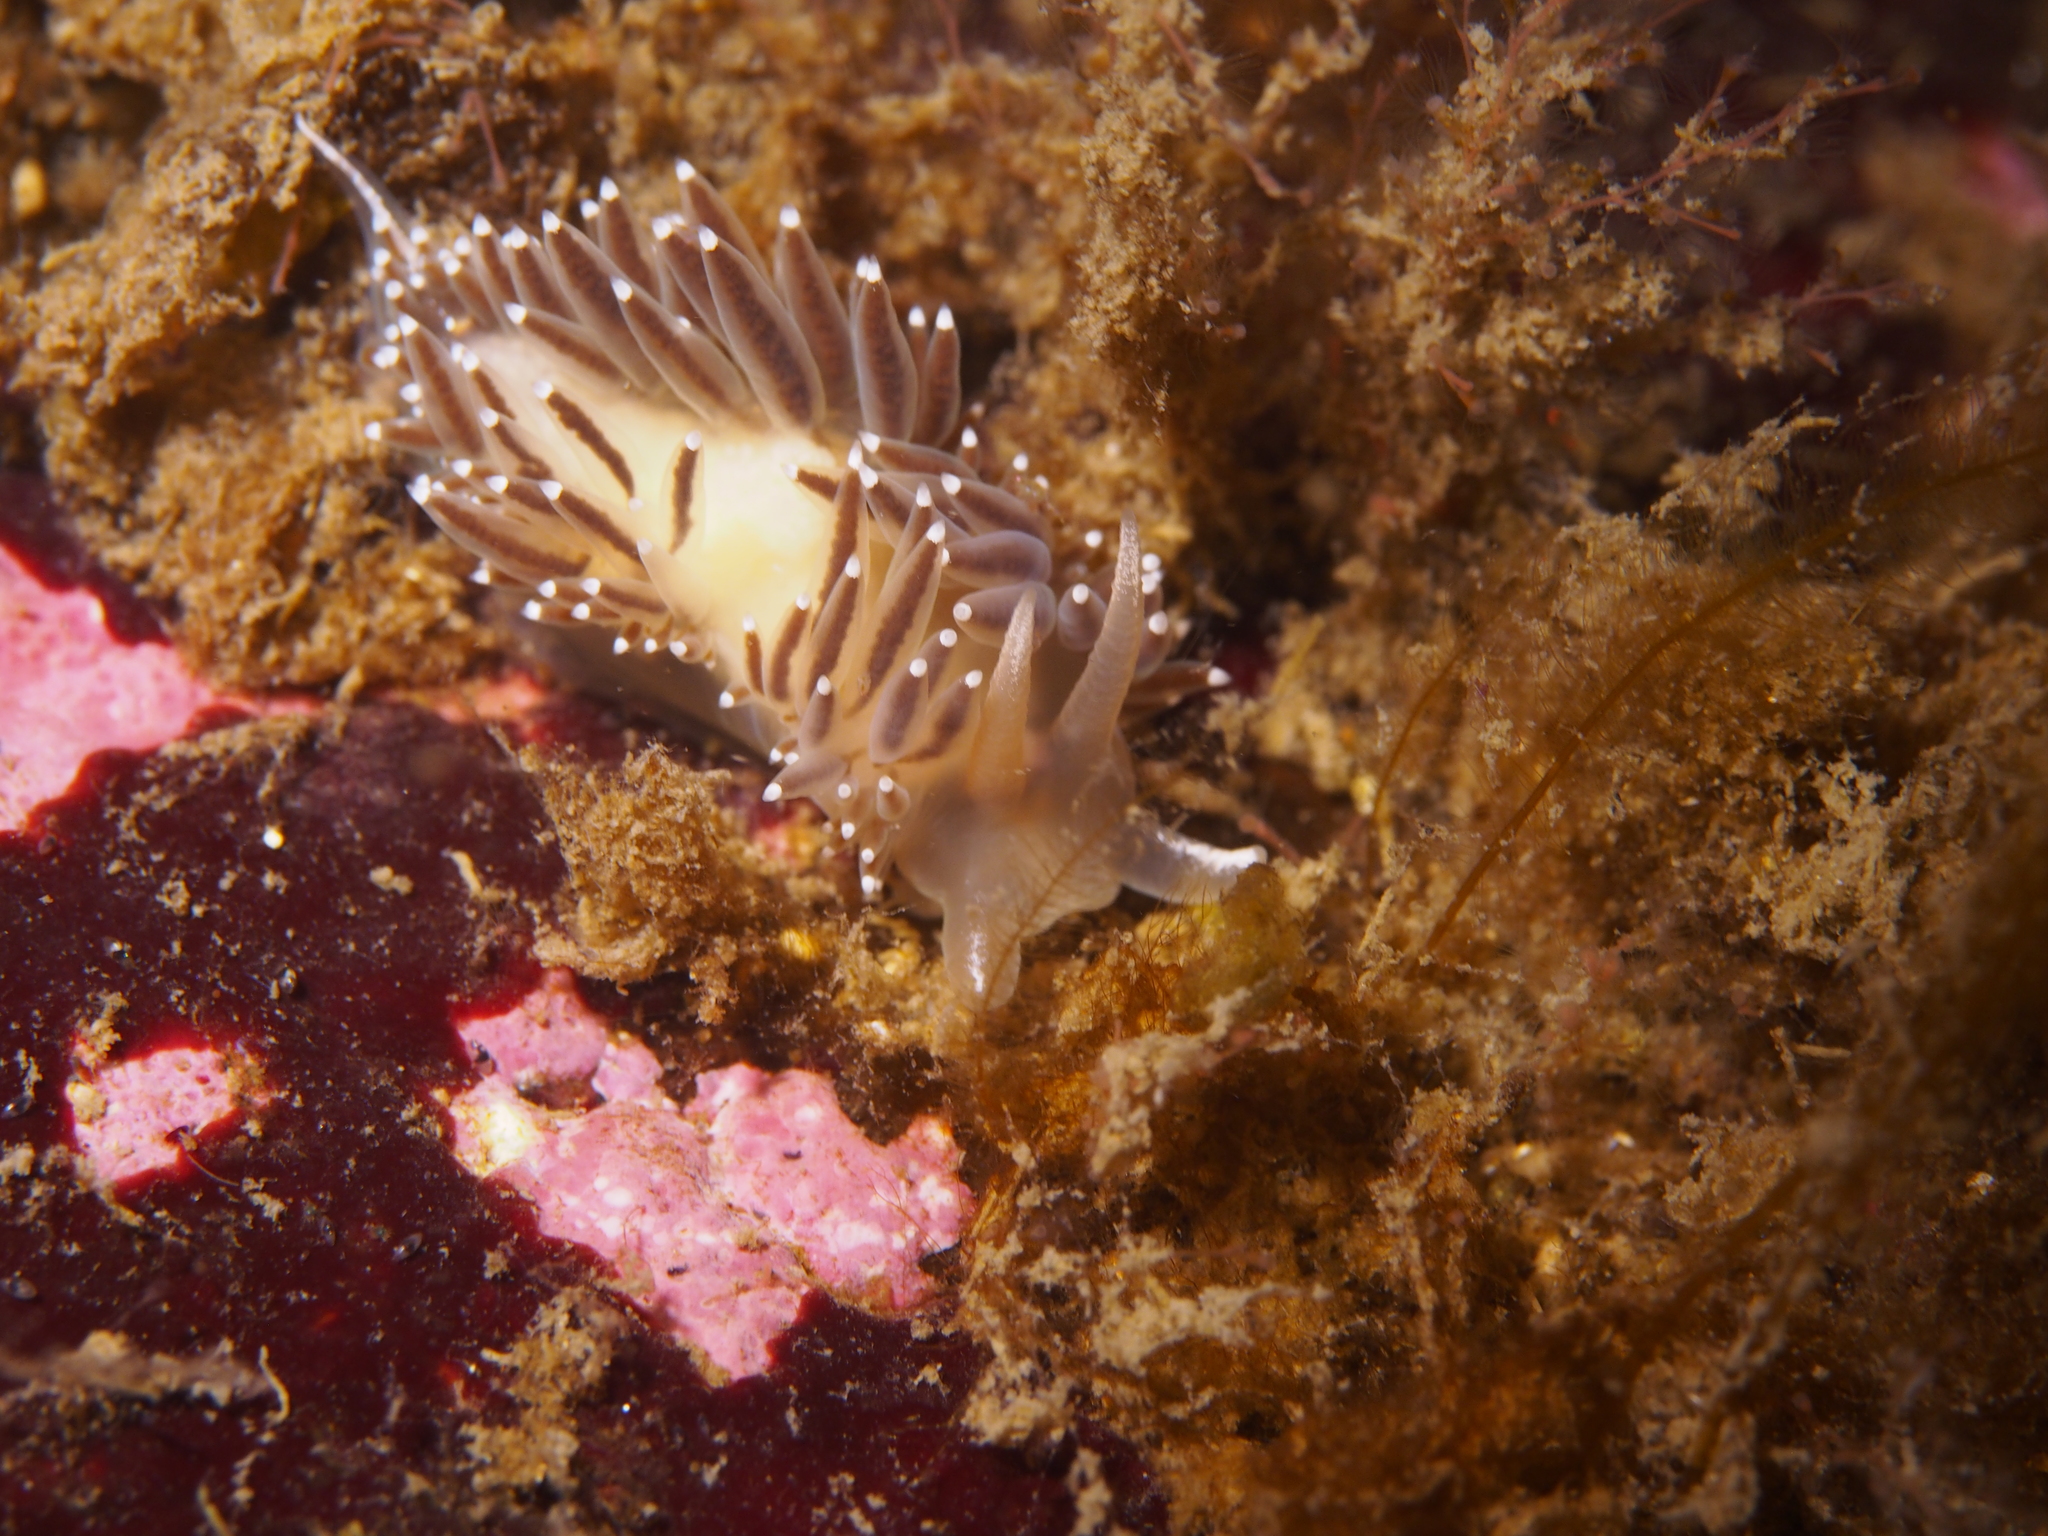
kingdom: Animalia
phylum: Mollusca
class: Gastropoda
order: Nudibranchia
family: Coryphellidae
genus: Coryphella
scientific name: Coryphella verrucosa
